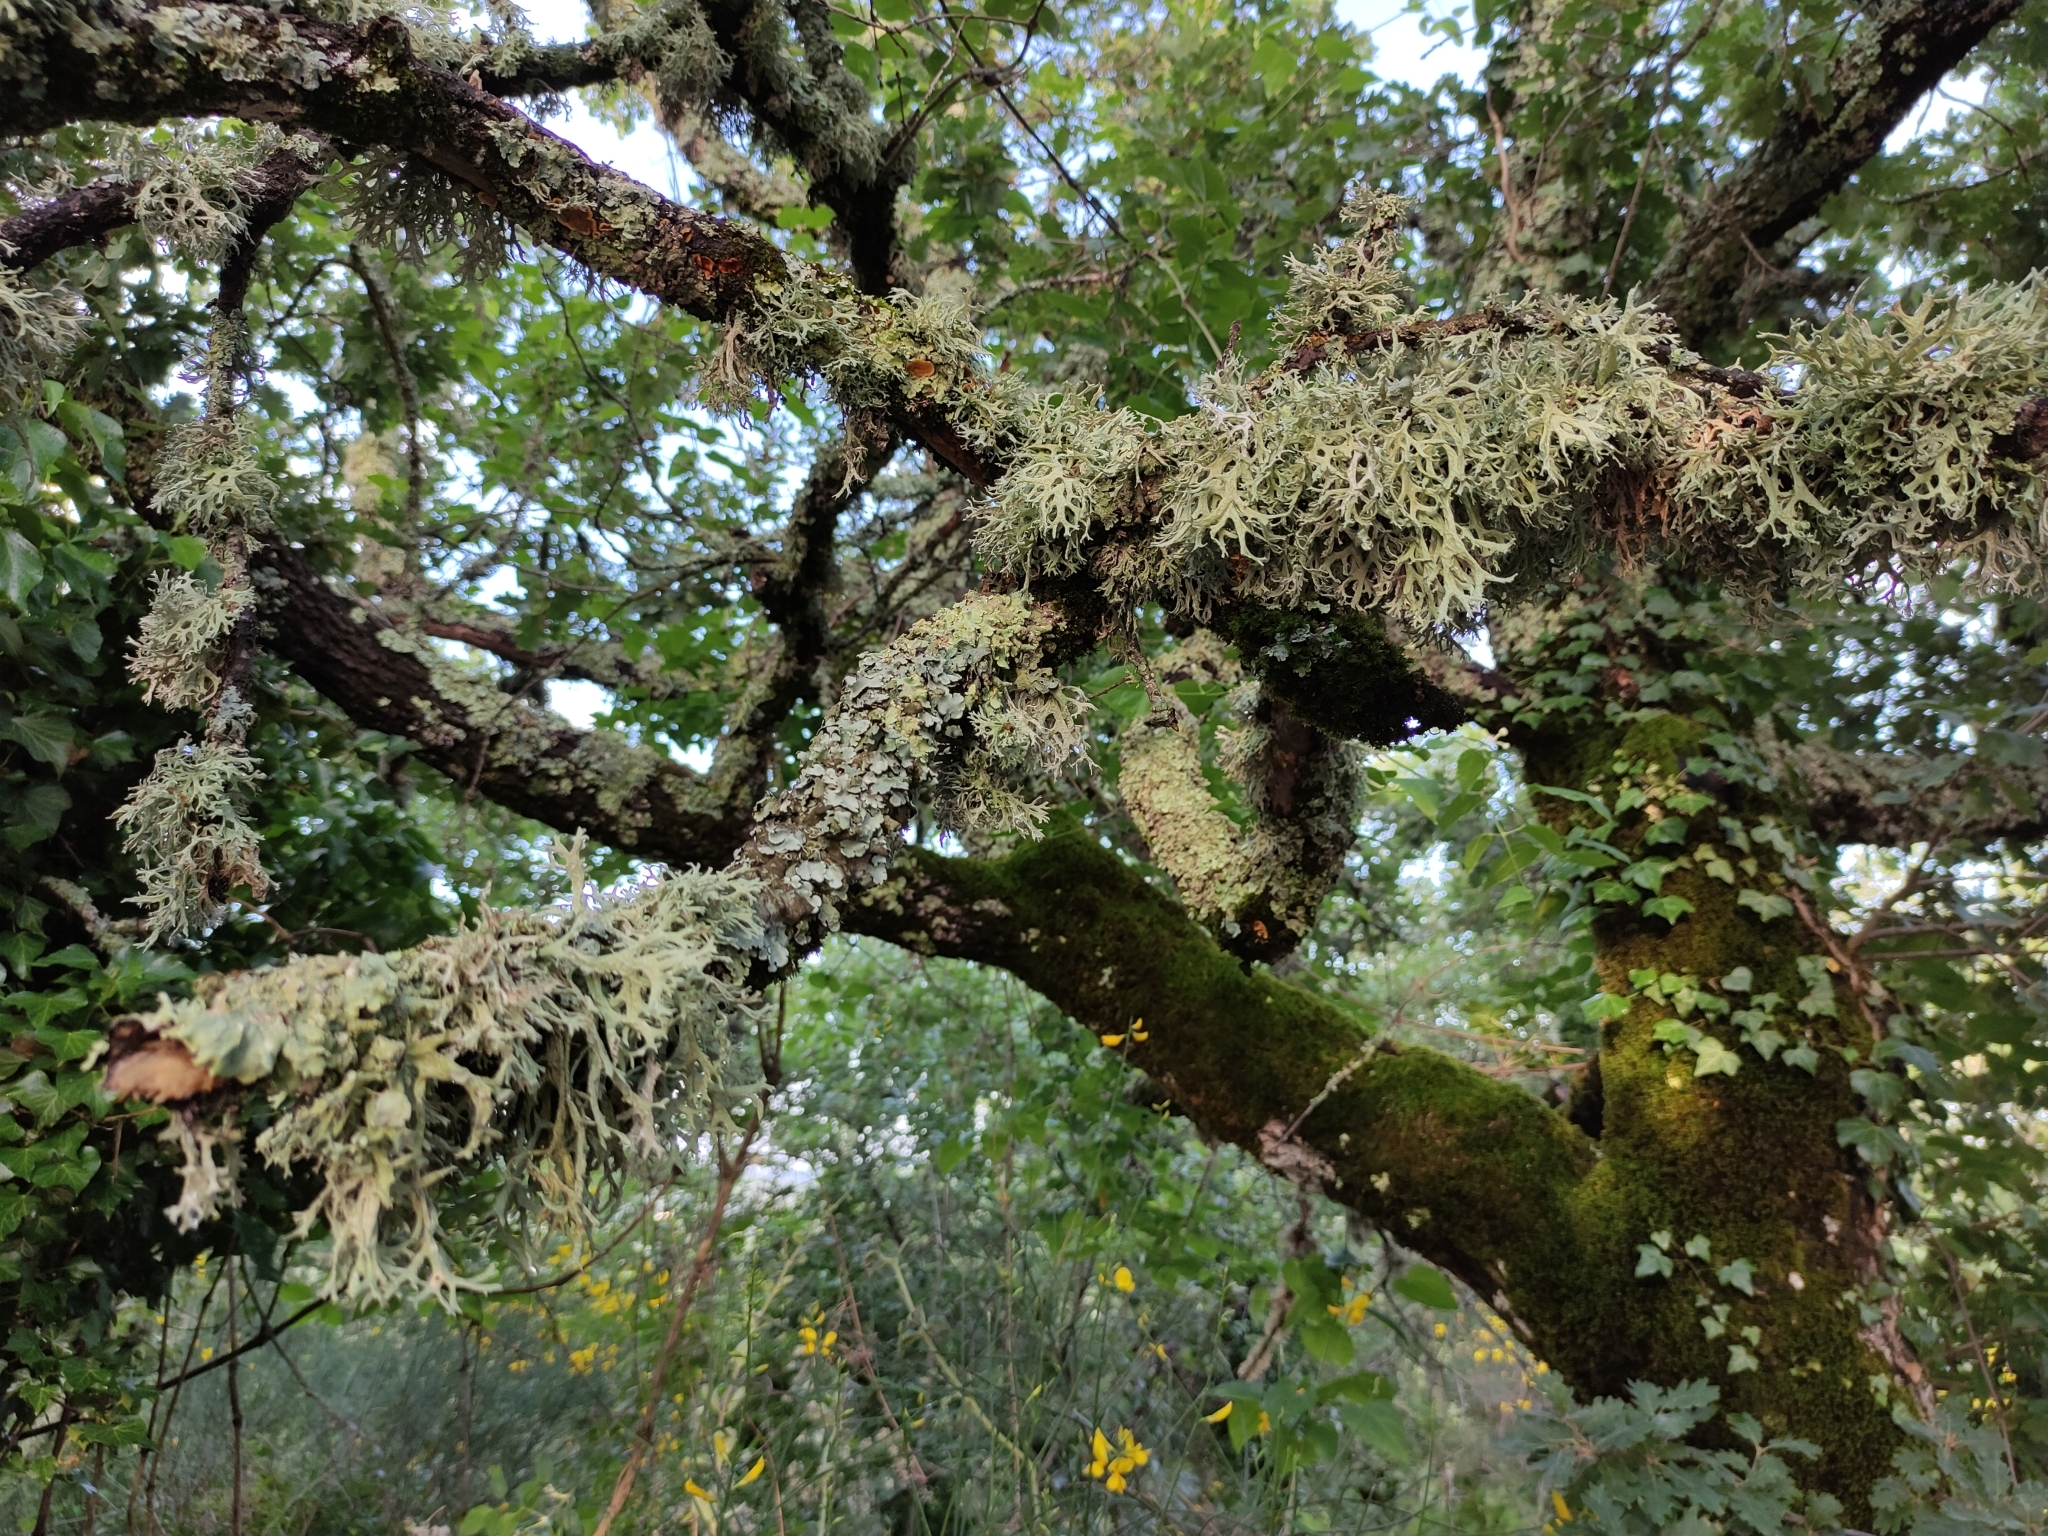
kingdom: Fungi
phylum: Ascomycota
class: Lecanoromycetes
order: Lecanorales
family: Parmeliaceae
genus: Evernia
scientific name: Evernia prunastri
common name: Oak moss
